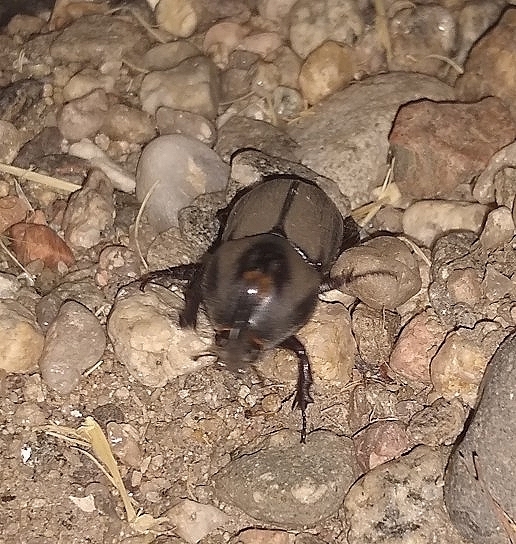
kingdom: Animalia
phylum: Arthropoda
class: Insecta
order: Coleoptera
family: Scarabaeidae
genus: Diloboderus
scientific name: Diloboderus abderus
